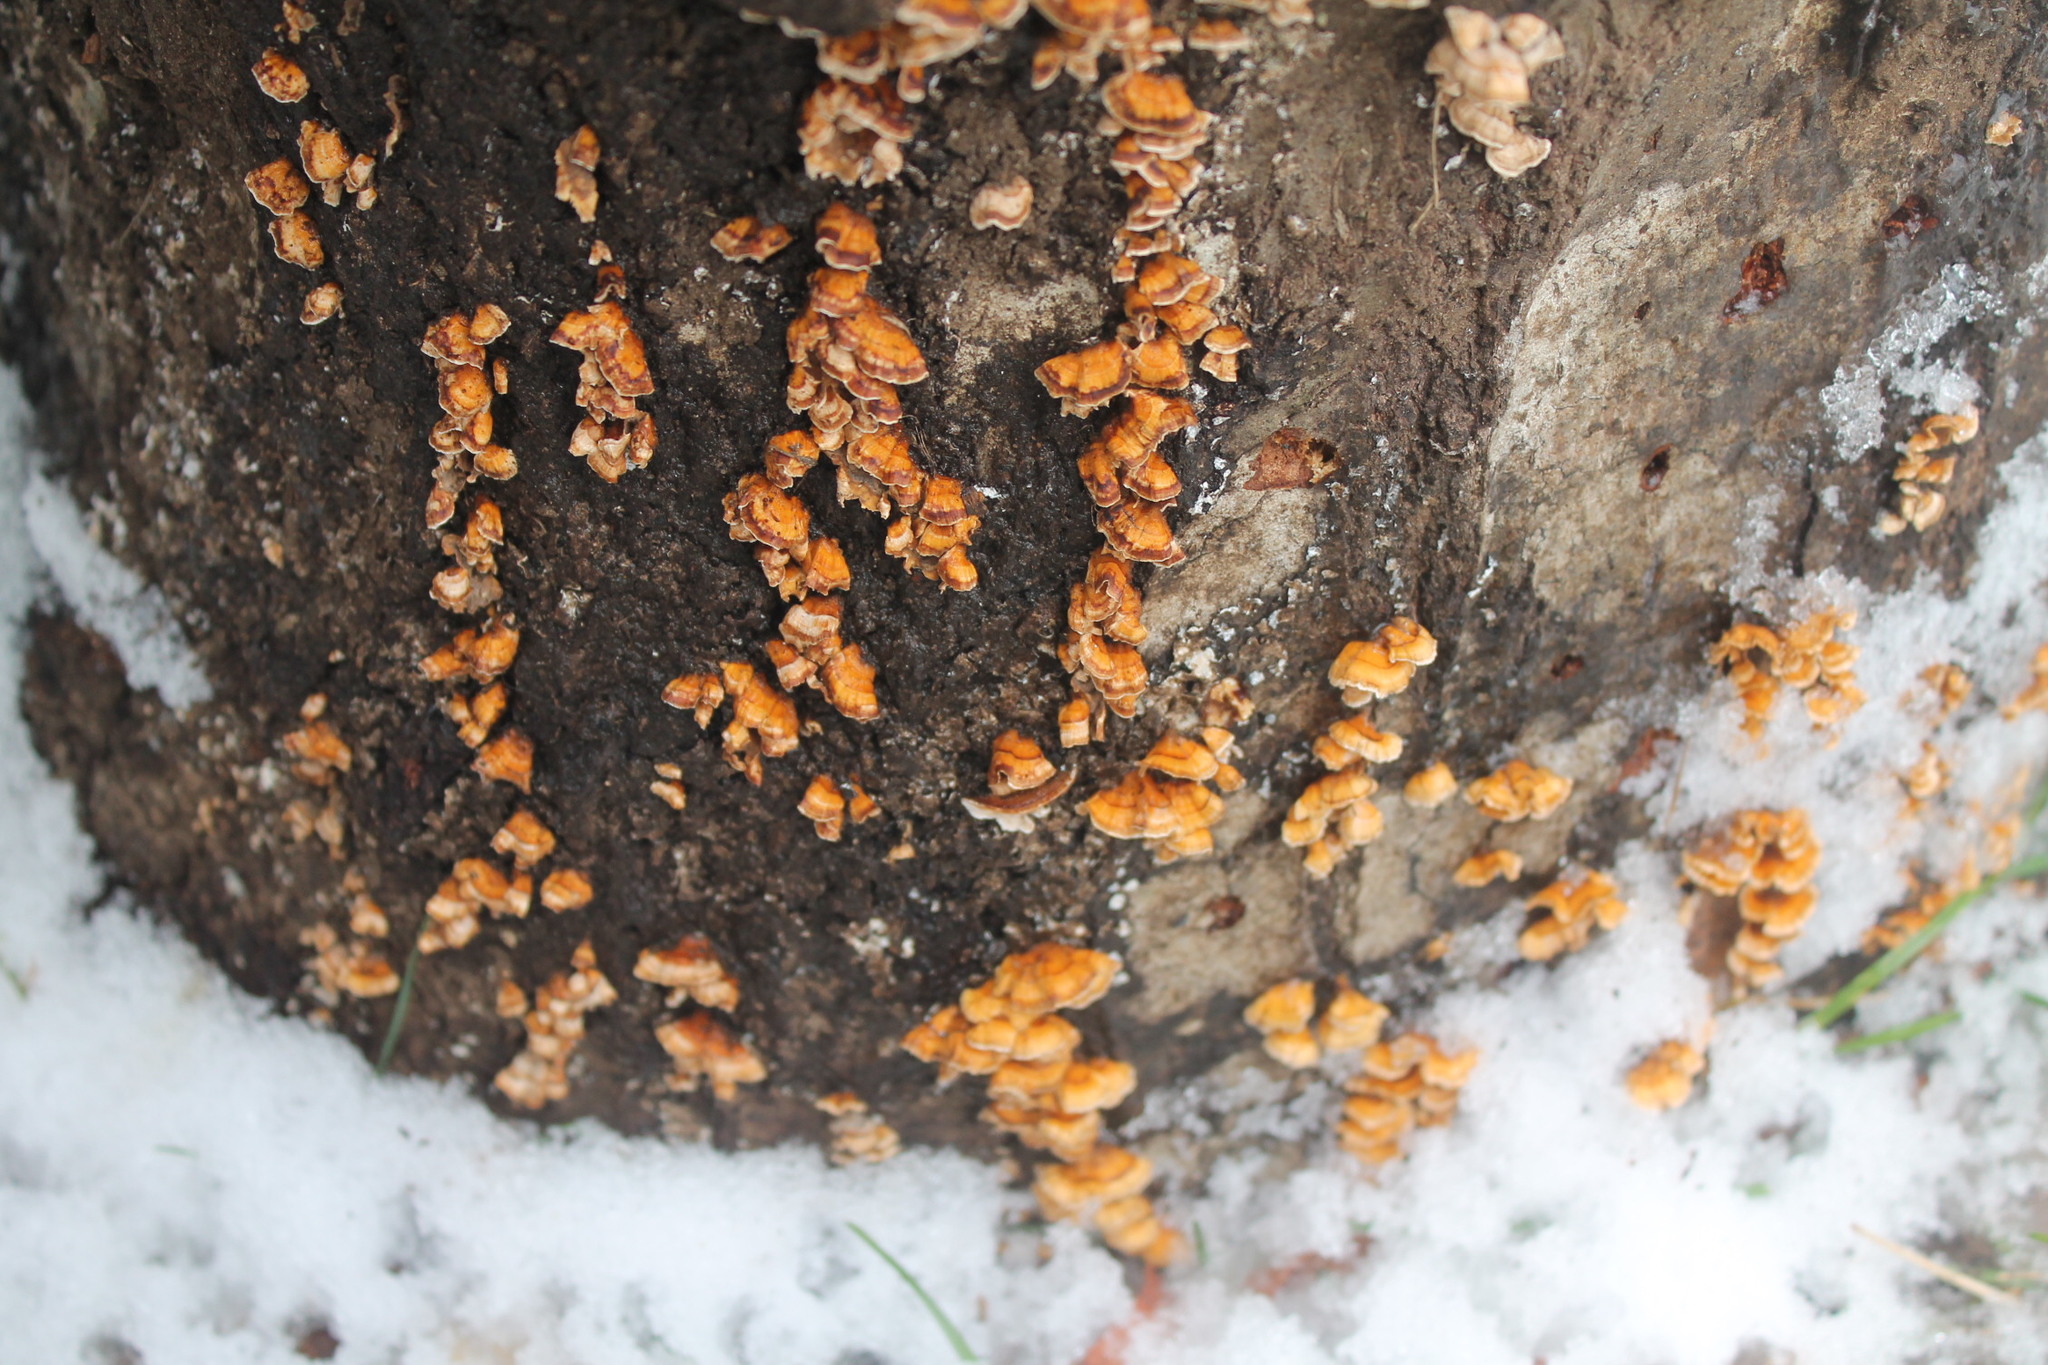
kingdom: Fungi
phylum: Basidiomycota
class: Agaricomycetes
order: Russulales
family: Stereaceae
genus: Stereum
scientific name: Stereum complicatum
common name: Crowded parchment
